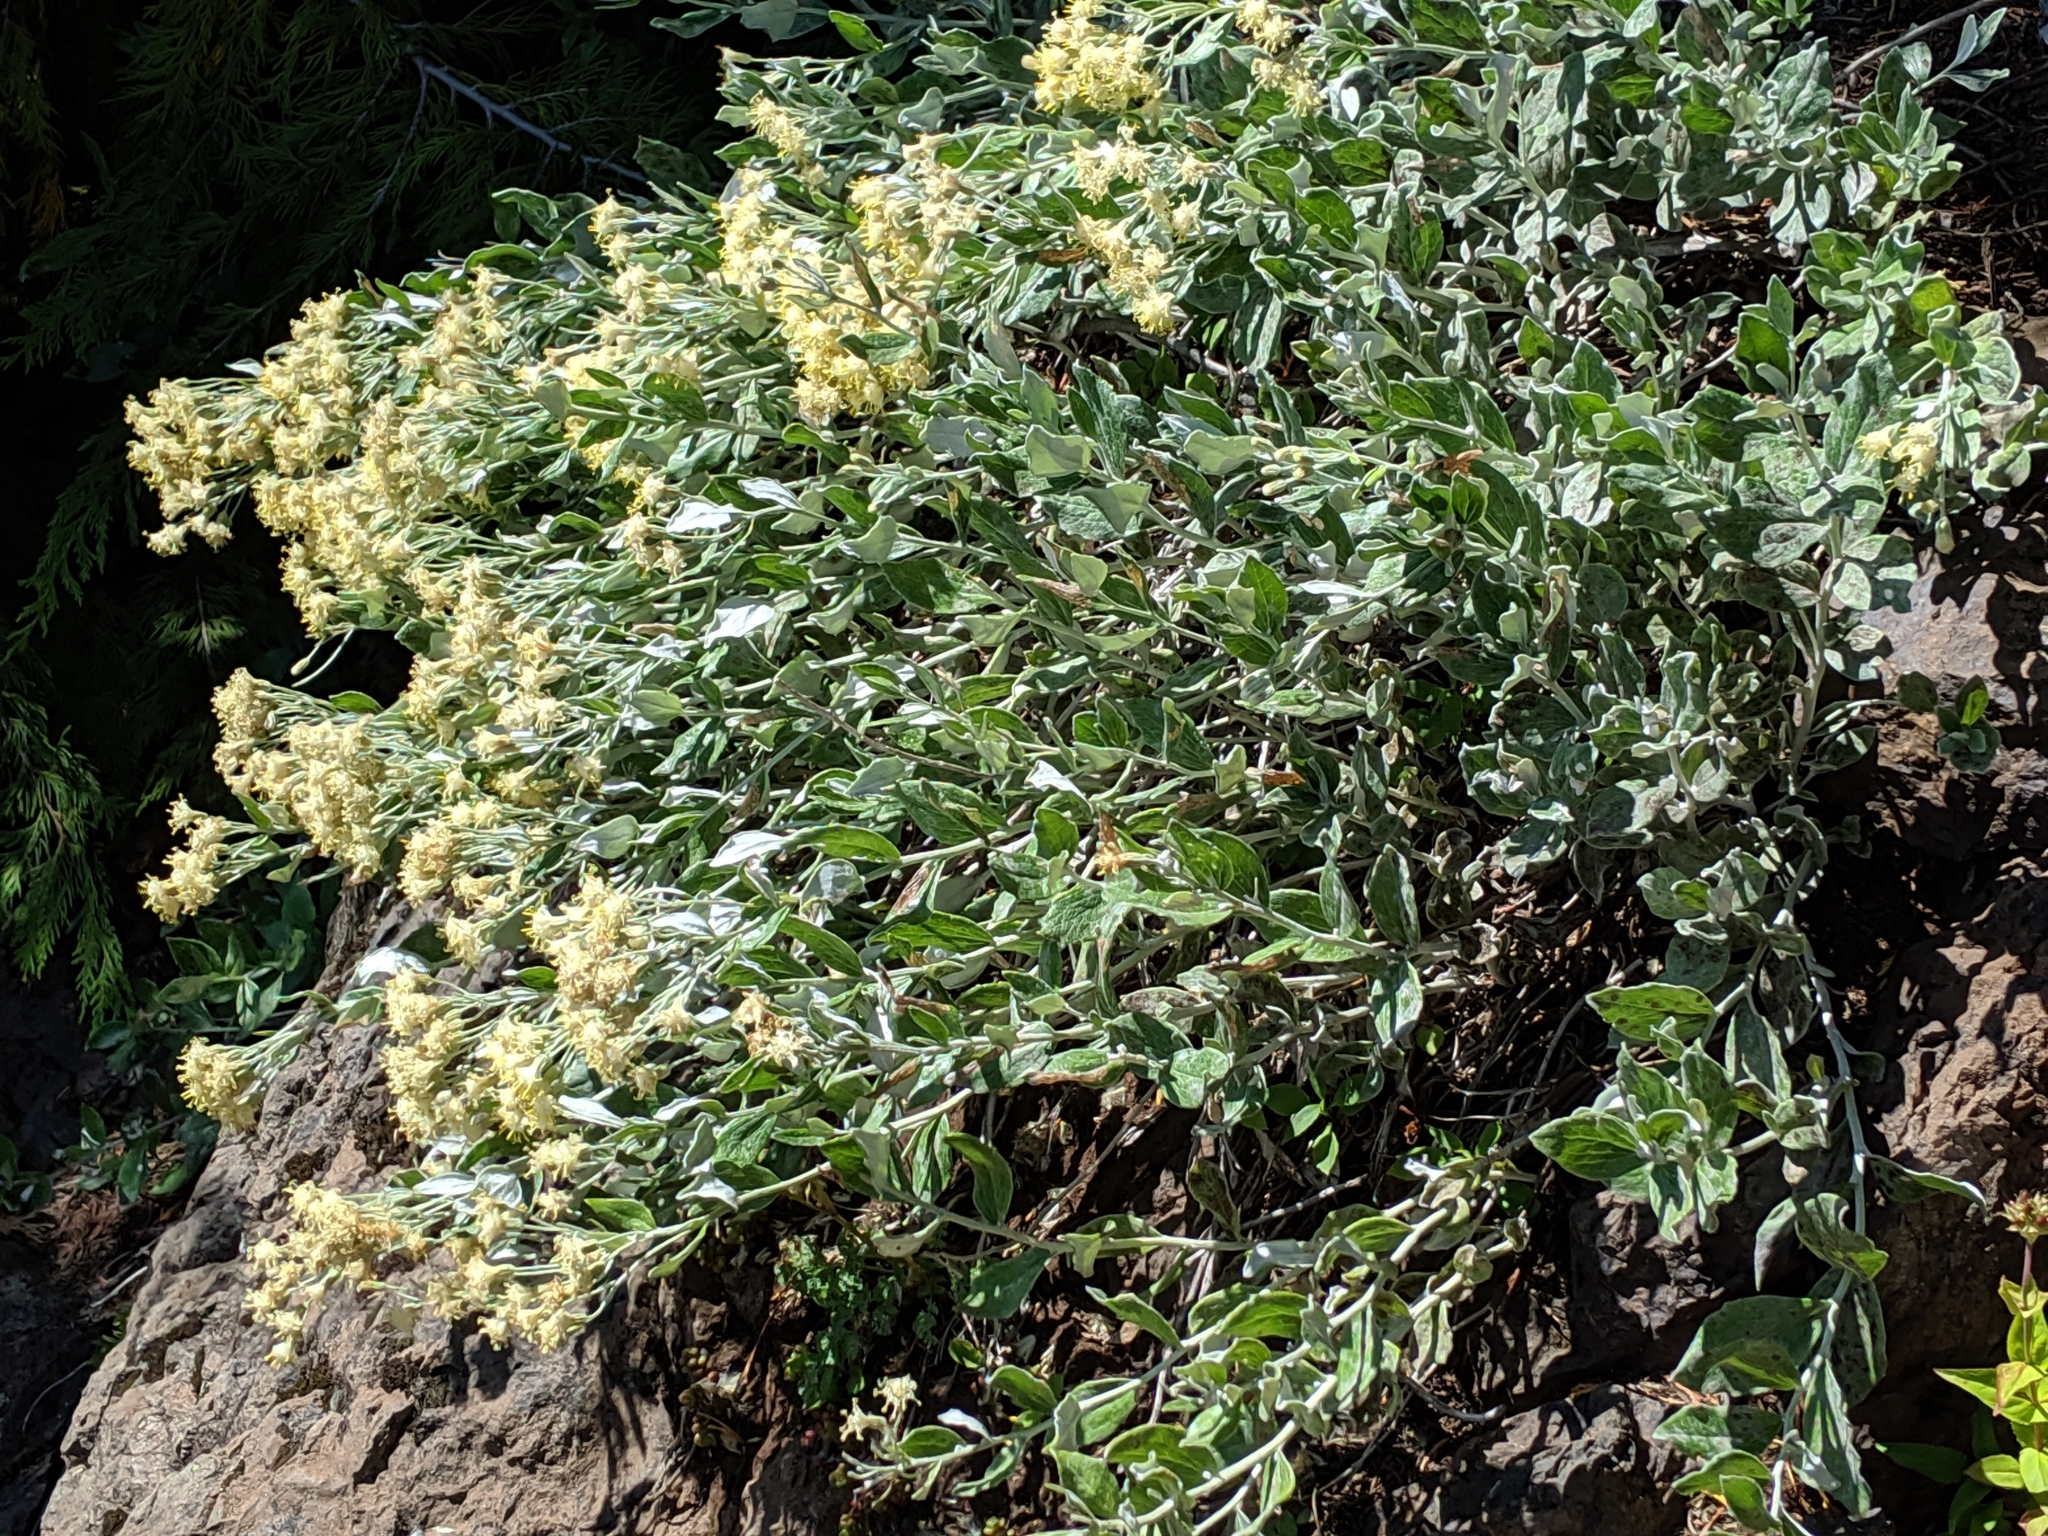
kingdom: Plantae
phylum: Tracheophyta
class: Magnoliopsida
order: Asterales
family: Asteraceae
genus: Luina
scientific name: Luina hypoleuca
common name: Little-leaved luina
